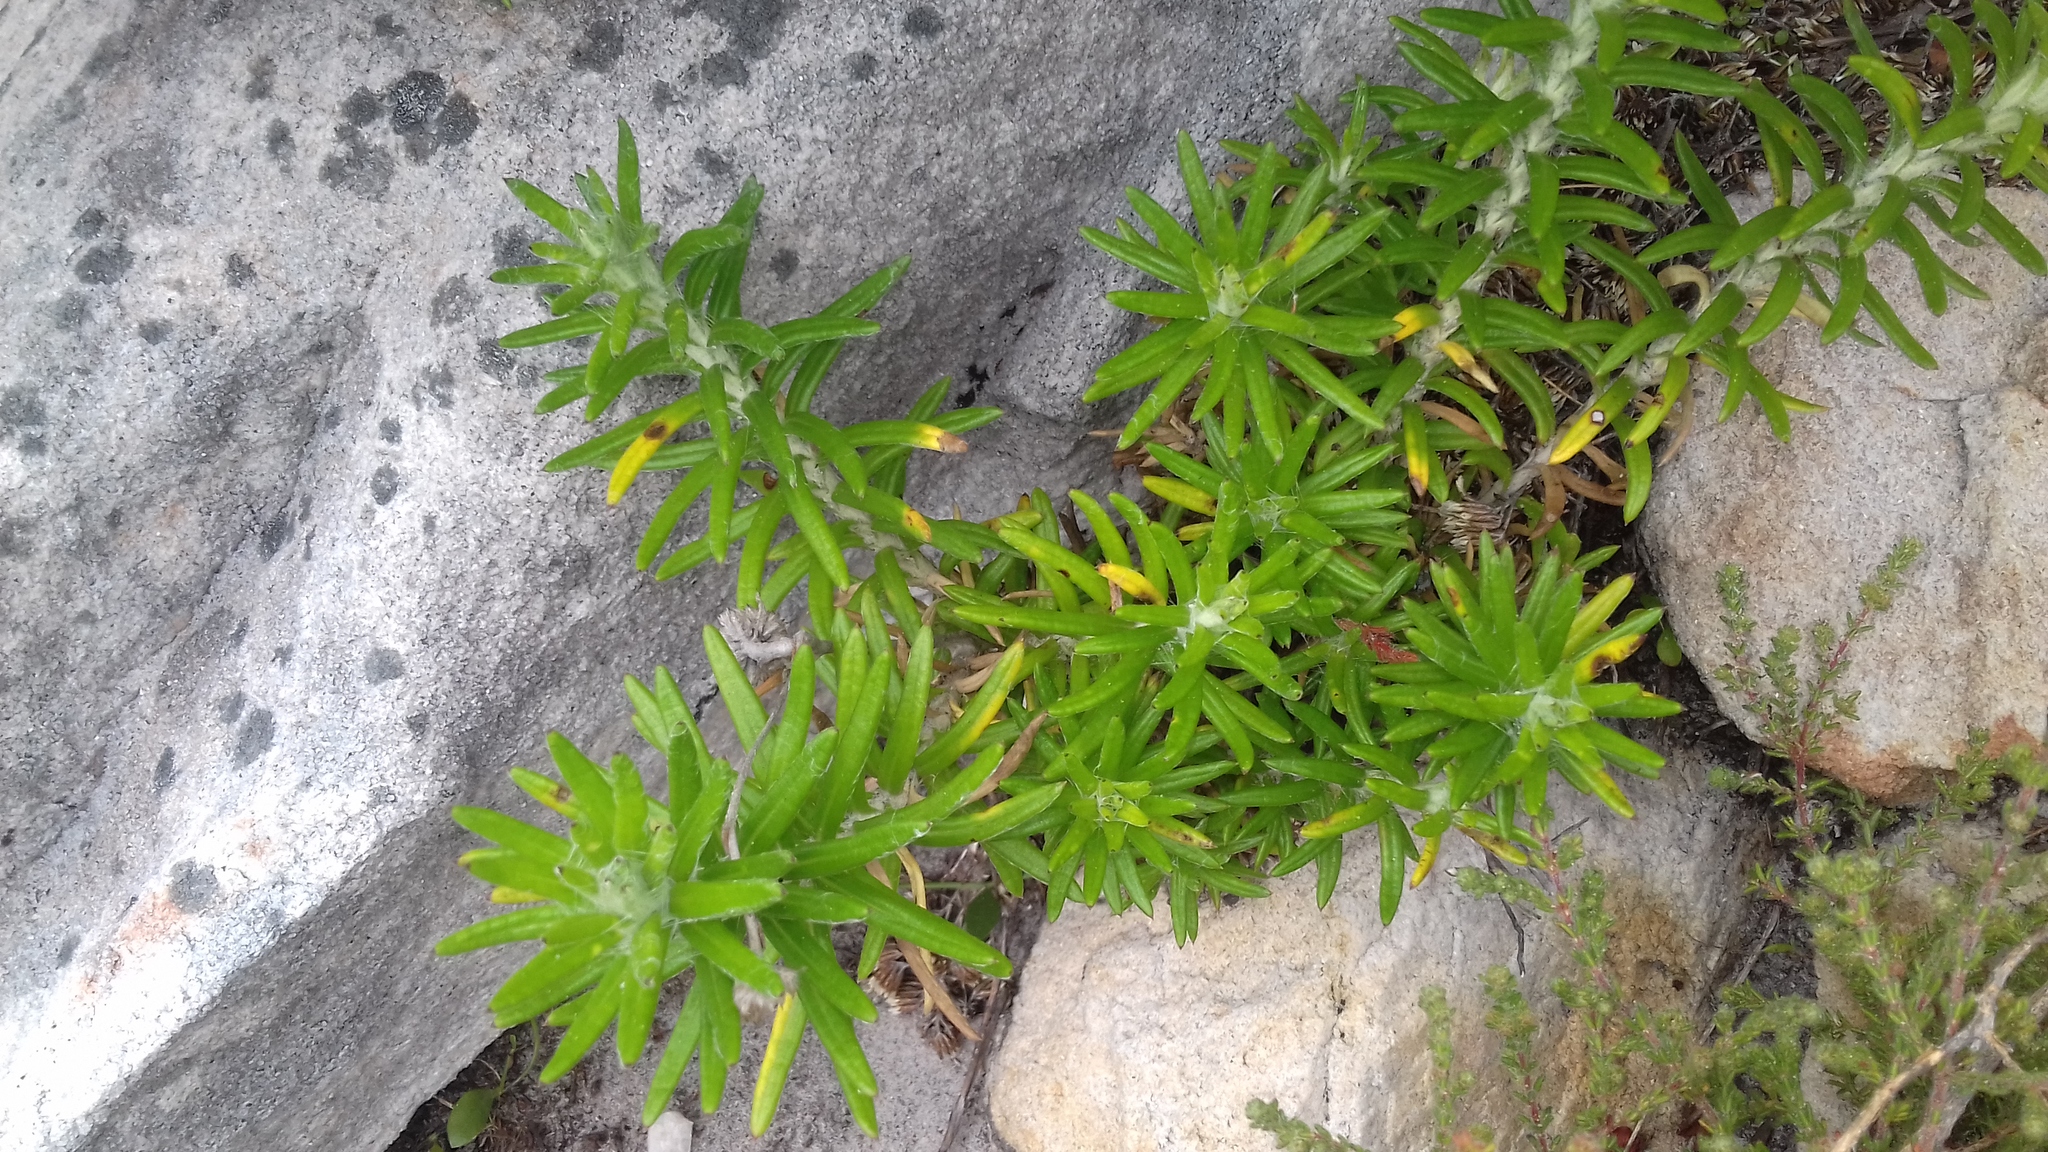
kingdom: Plantae
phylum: Tracheophyta
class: Magnoliopsida
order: Asterales
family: Asteraceae
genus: Anaxeton
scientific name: Anaxeton laeve
